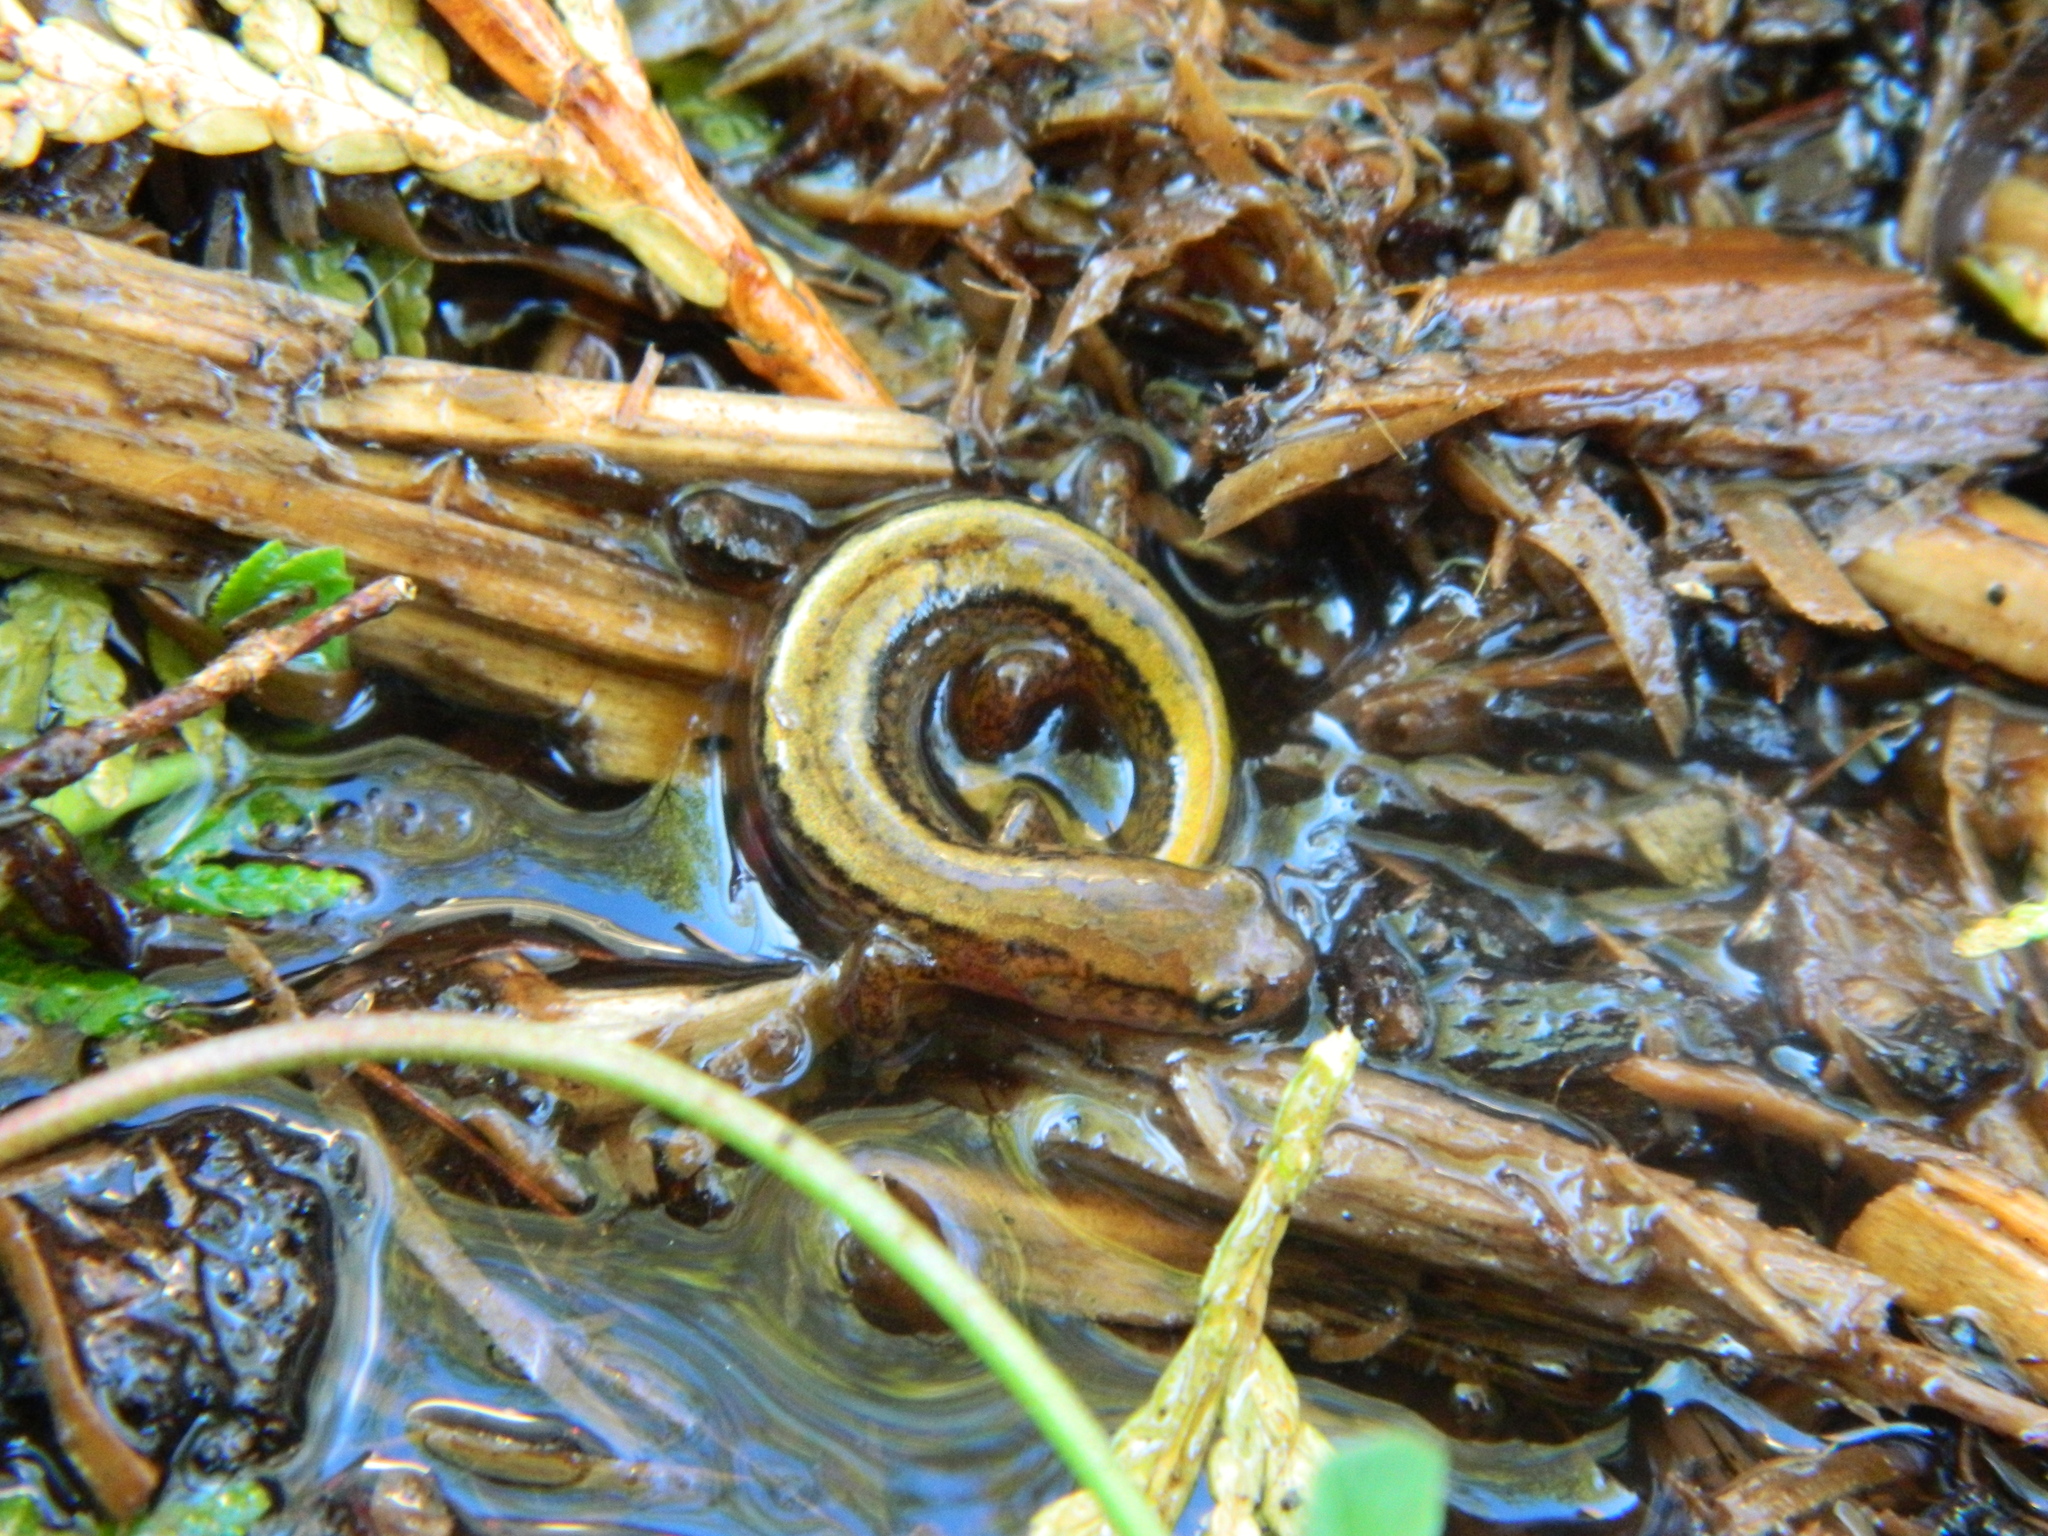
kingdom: Animalia
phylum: Chordata
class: Amphibia
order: Caudata
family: Plethodontidae
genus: Eurycea
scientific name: Eurycea bislineata
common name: Northern two-lined salamander
